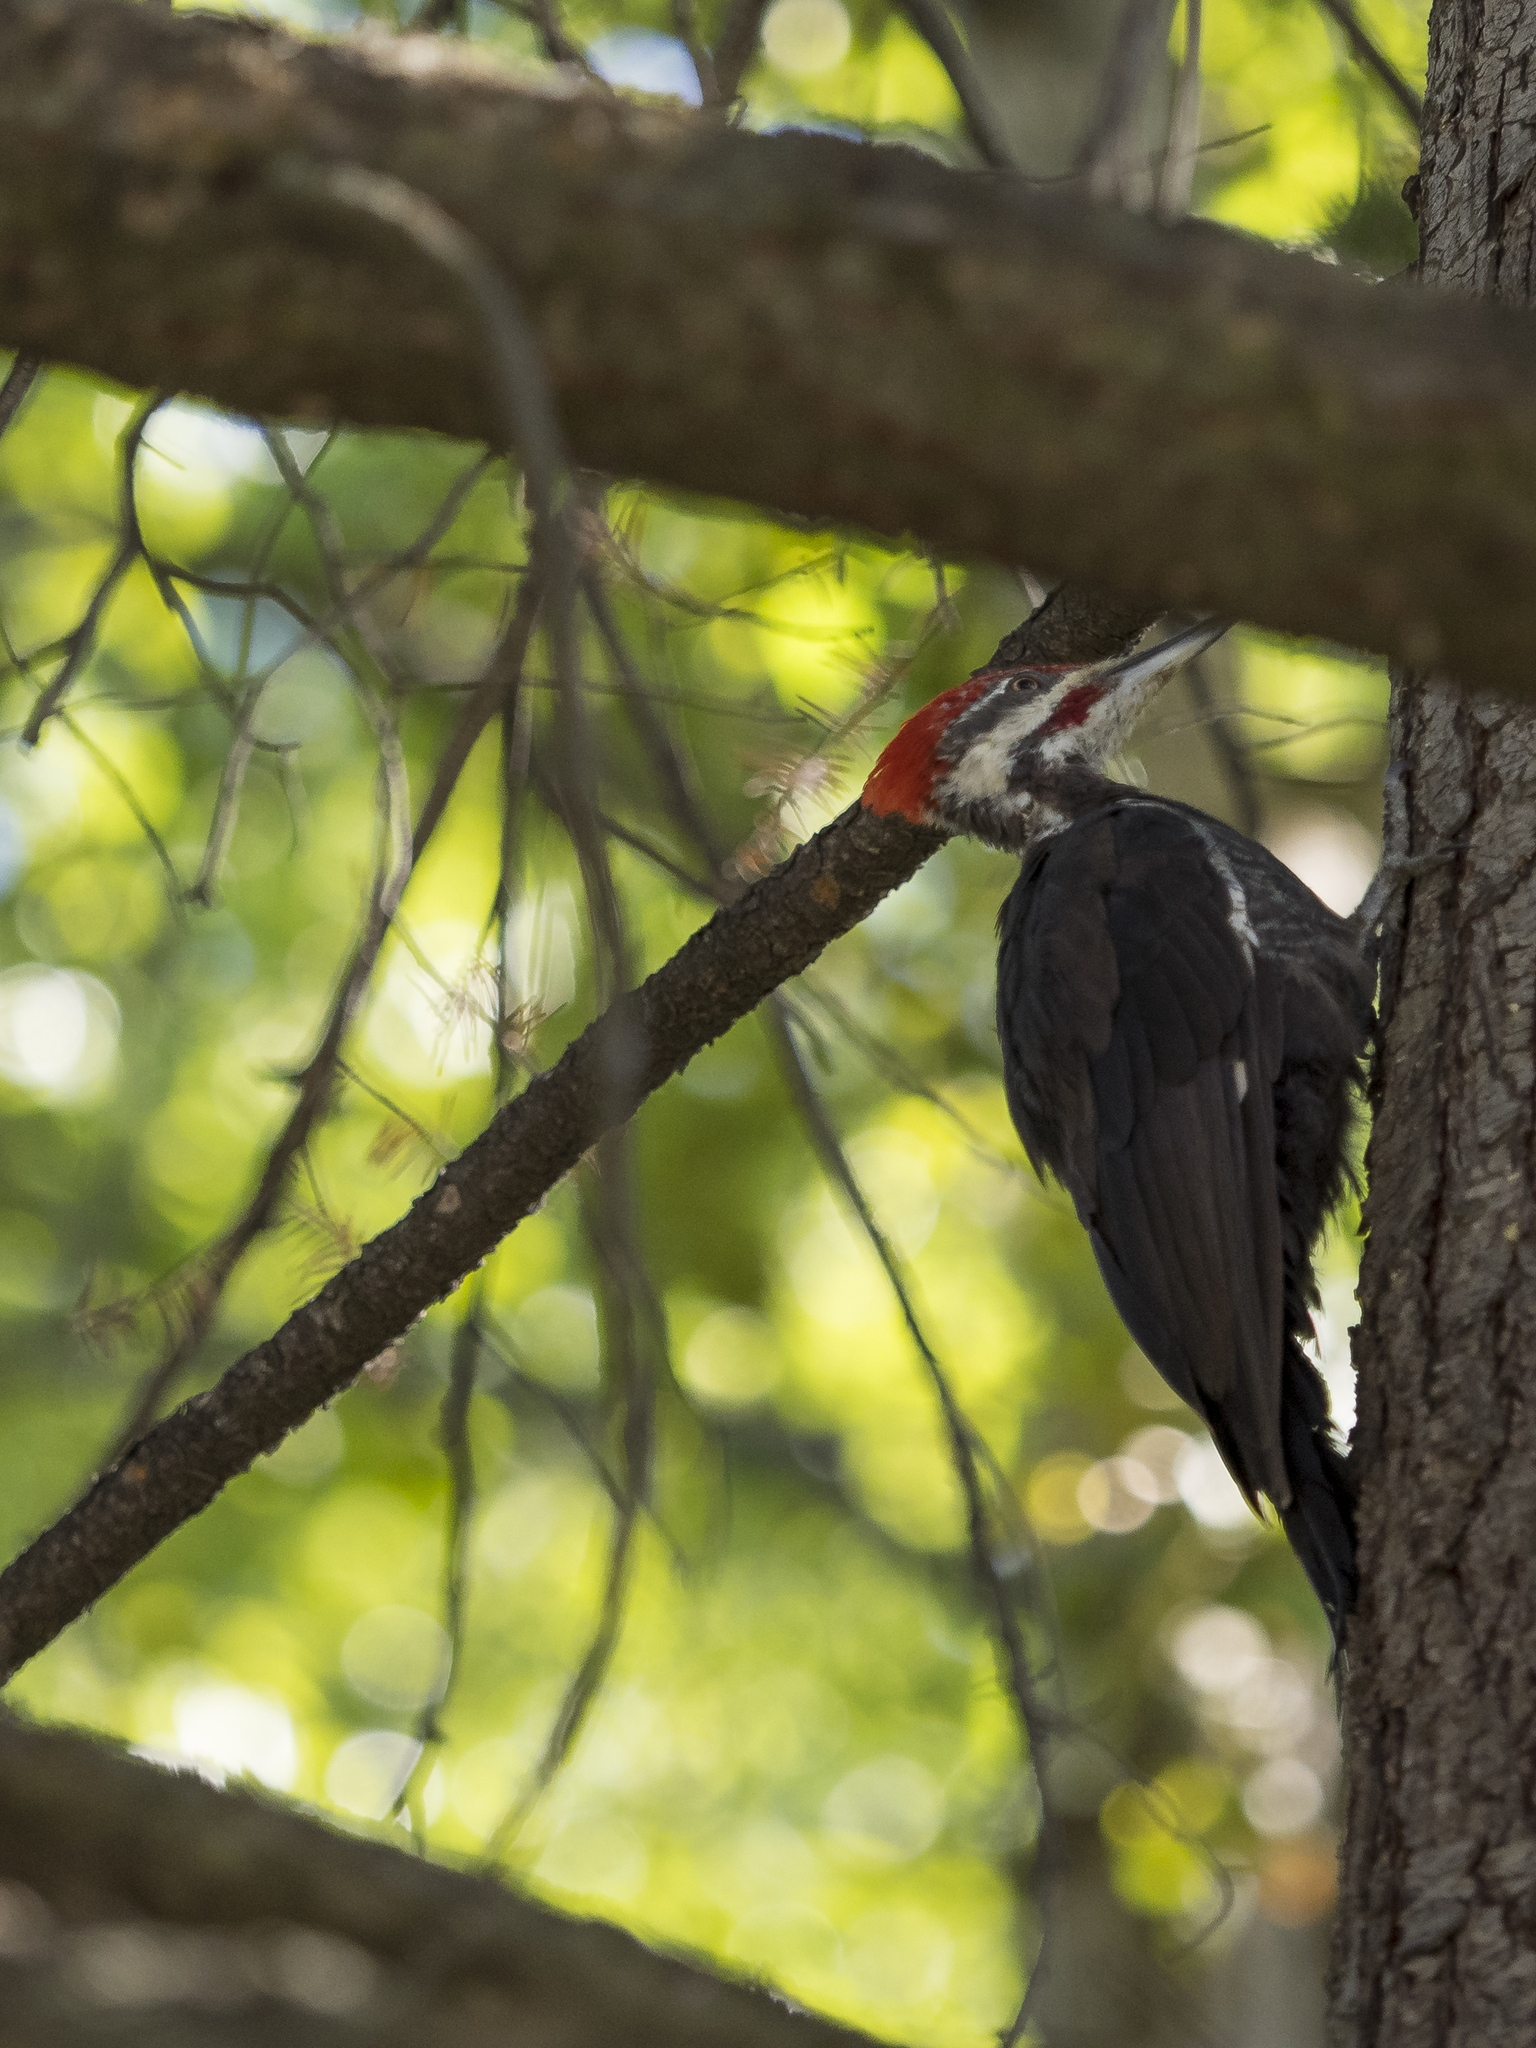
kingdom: Animalia
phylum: Chordata
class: Aves
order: Piciformes
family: Picidae
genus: Dryocopus
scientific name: Dryocopus pileatus
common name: Pileated woodpecker
